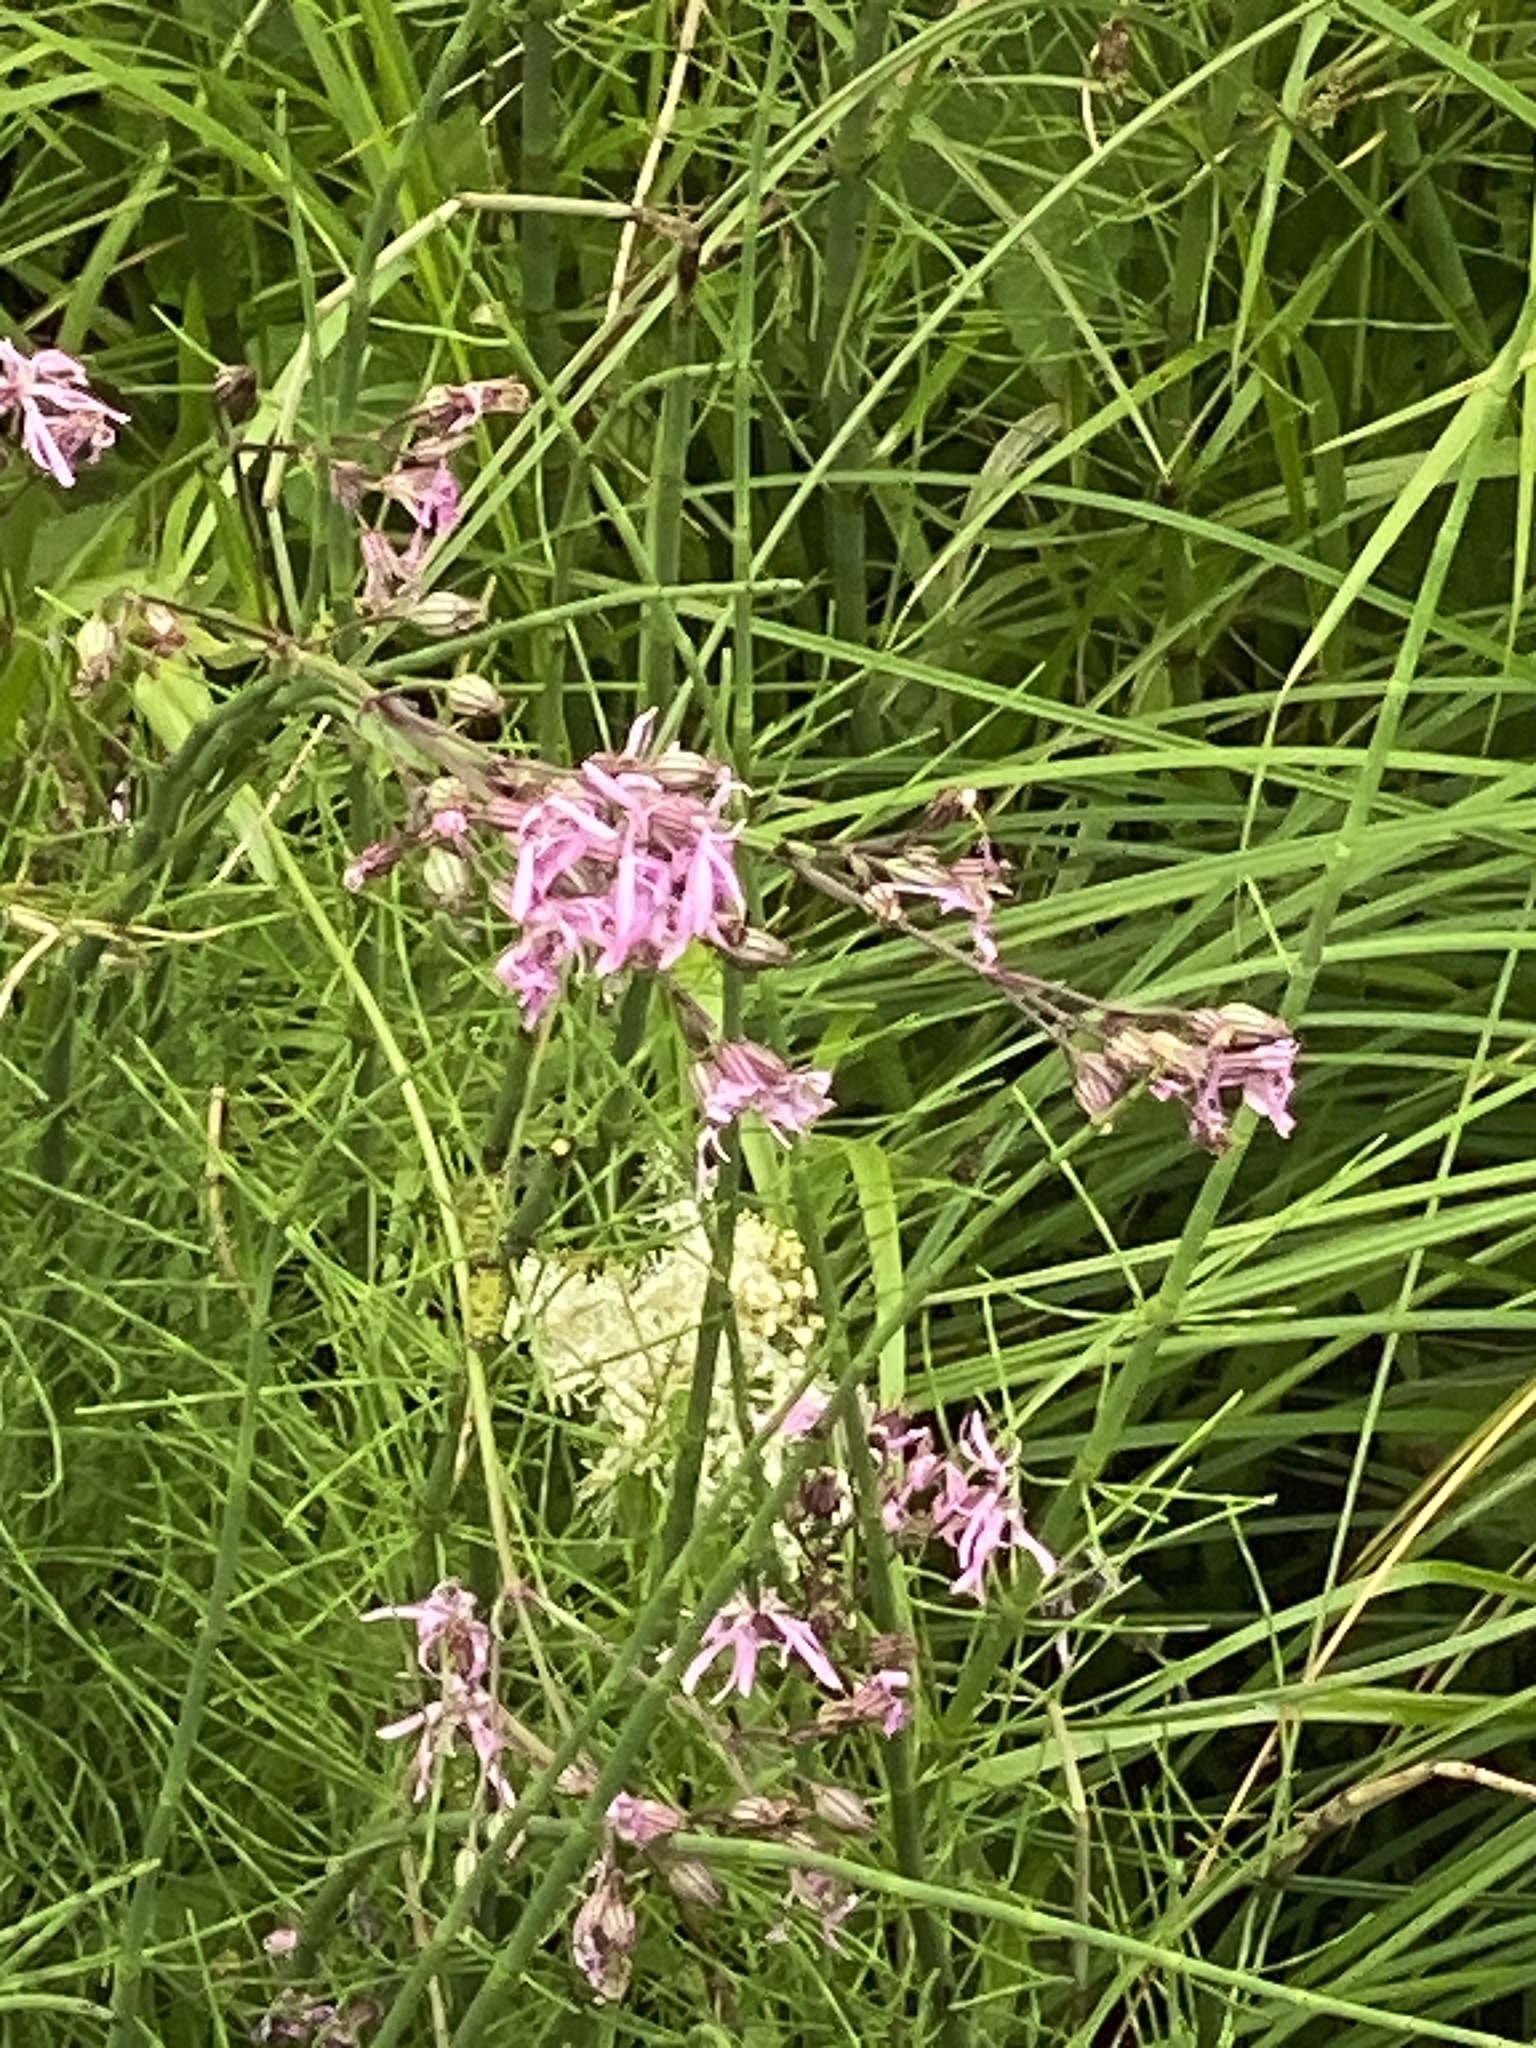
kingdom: Plantae
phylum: Tracheophyta
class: Magnoliopsida
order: Caryophyllales
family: Caryophyllaceae
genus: Silene
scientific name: Silene flos-cuculi
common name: Ragged-robin
